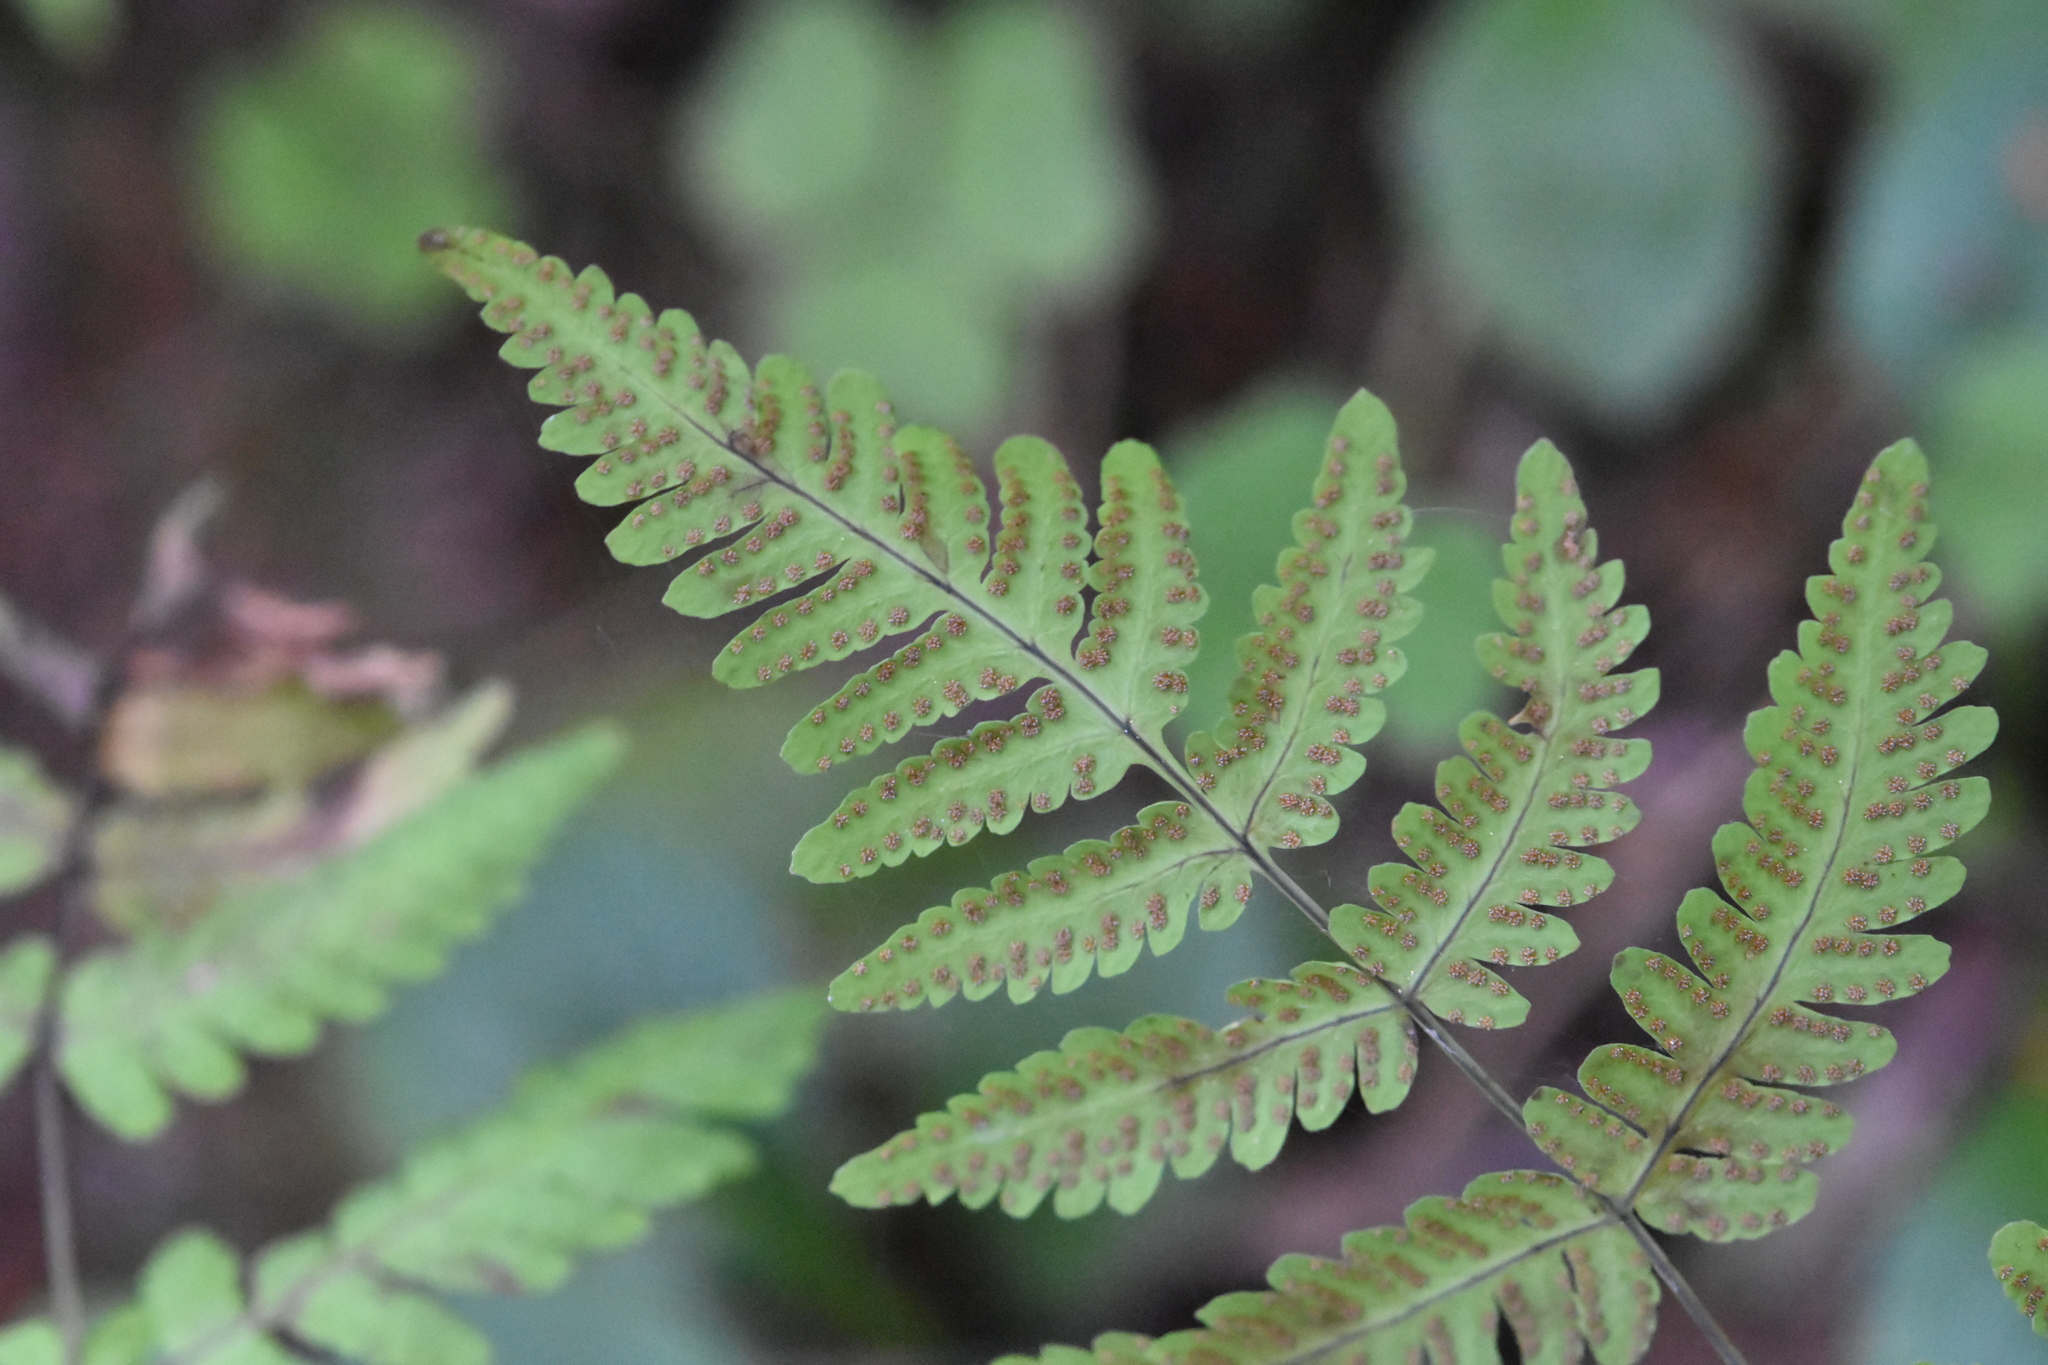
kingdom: Plantae
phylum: Tracheophyta
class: Polypodiopsida
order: Polypodiales
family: Cystopteridaceae
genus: Gymnocarpium
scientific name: Gymnocarpium dryopteris
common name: Oak fern
